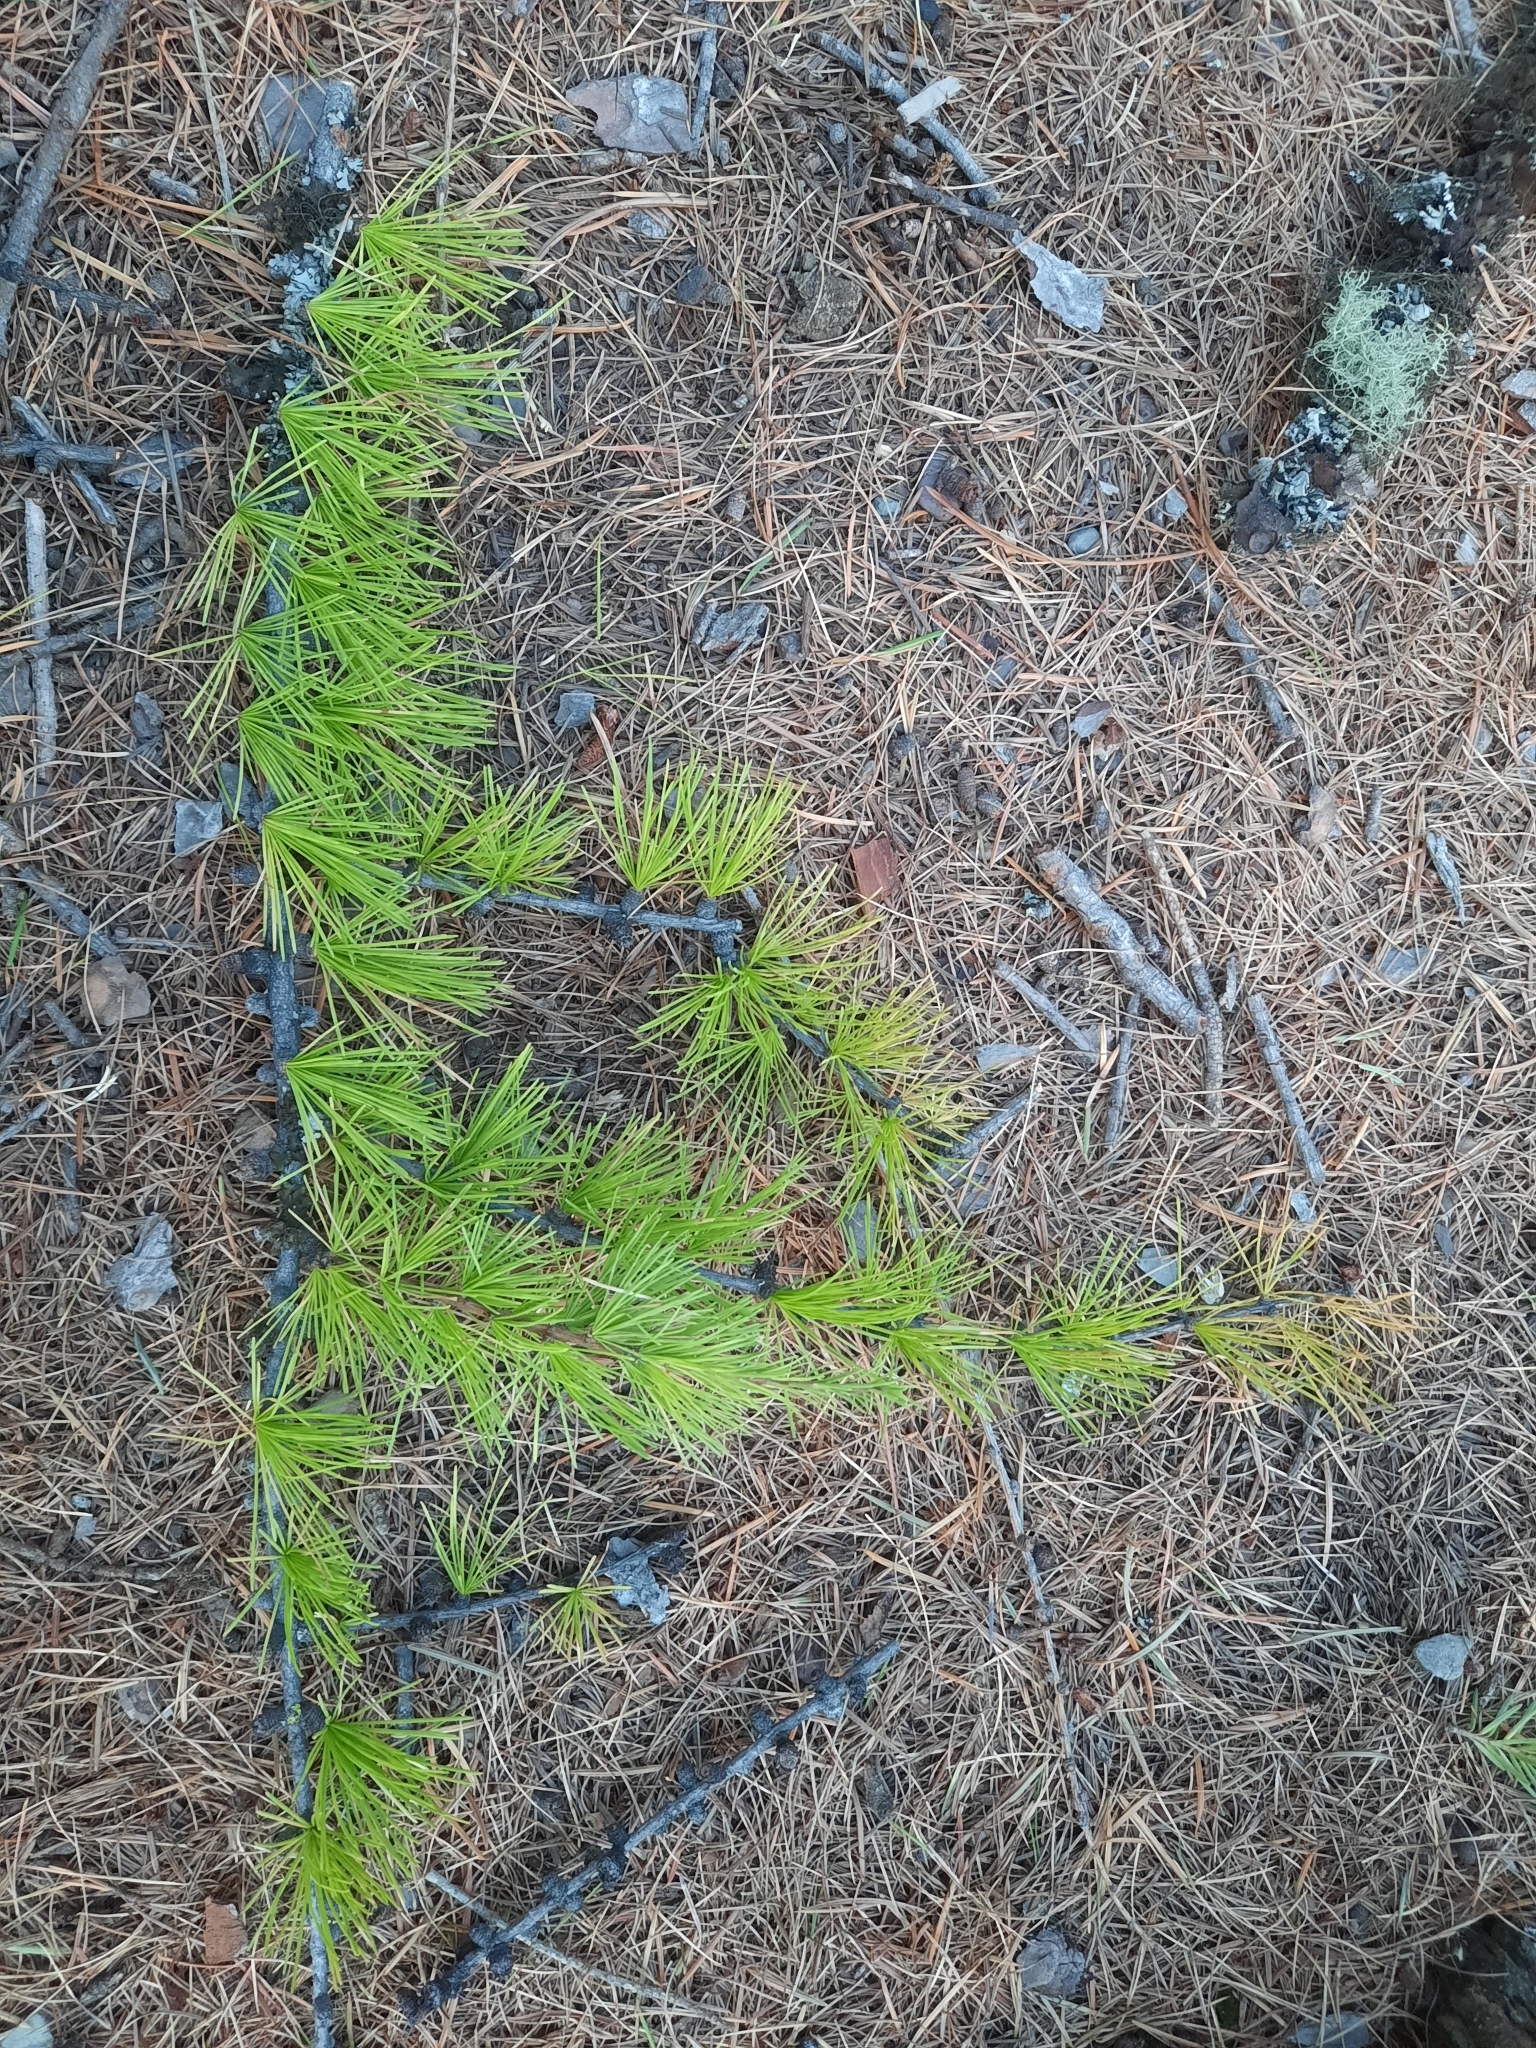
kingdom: Plantae
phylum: Tracheophyta
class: Pinopsida
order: Pinales
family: Pinaceae
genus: Larix
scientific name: Larix occidentalis
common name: Western larch
